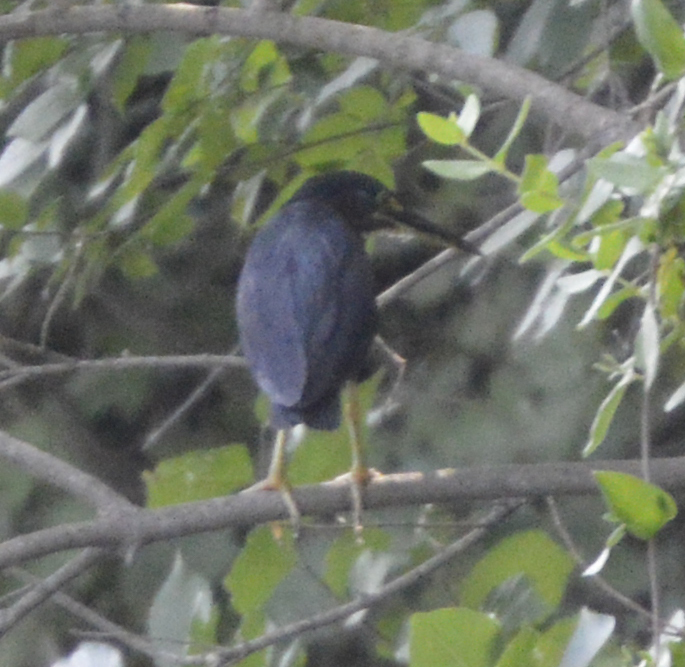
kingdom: Animalia
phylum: Chordata
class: Aves
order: Pelecaniformes
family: Ardeidae
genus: Butorides
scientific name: Butorides virescens
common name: Green heron
